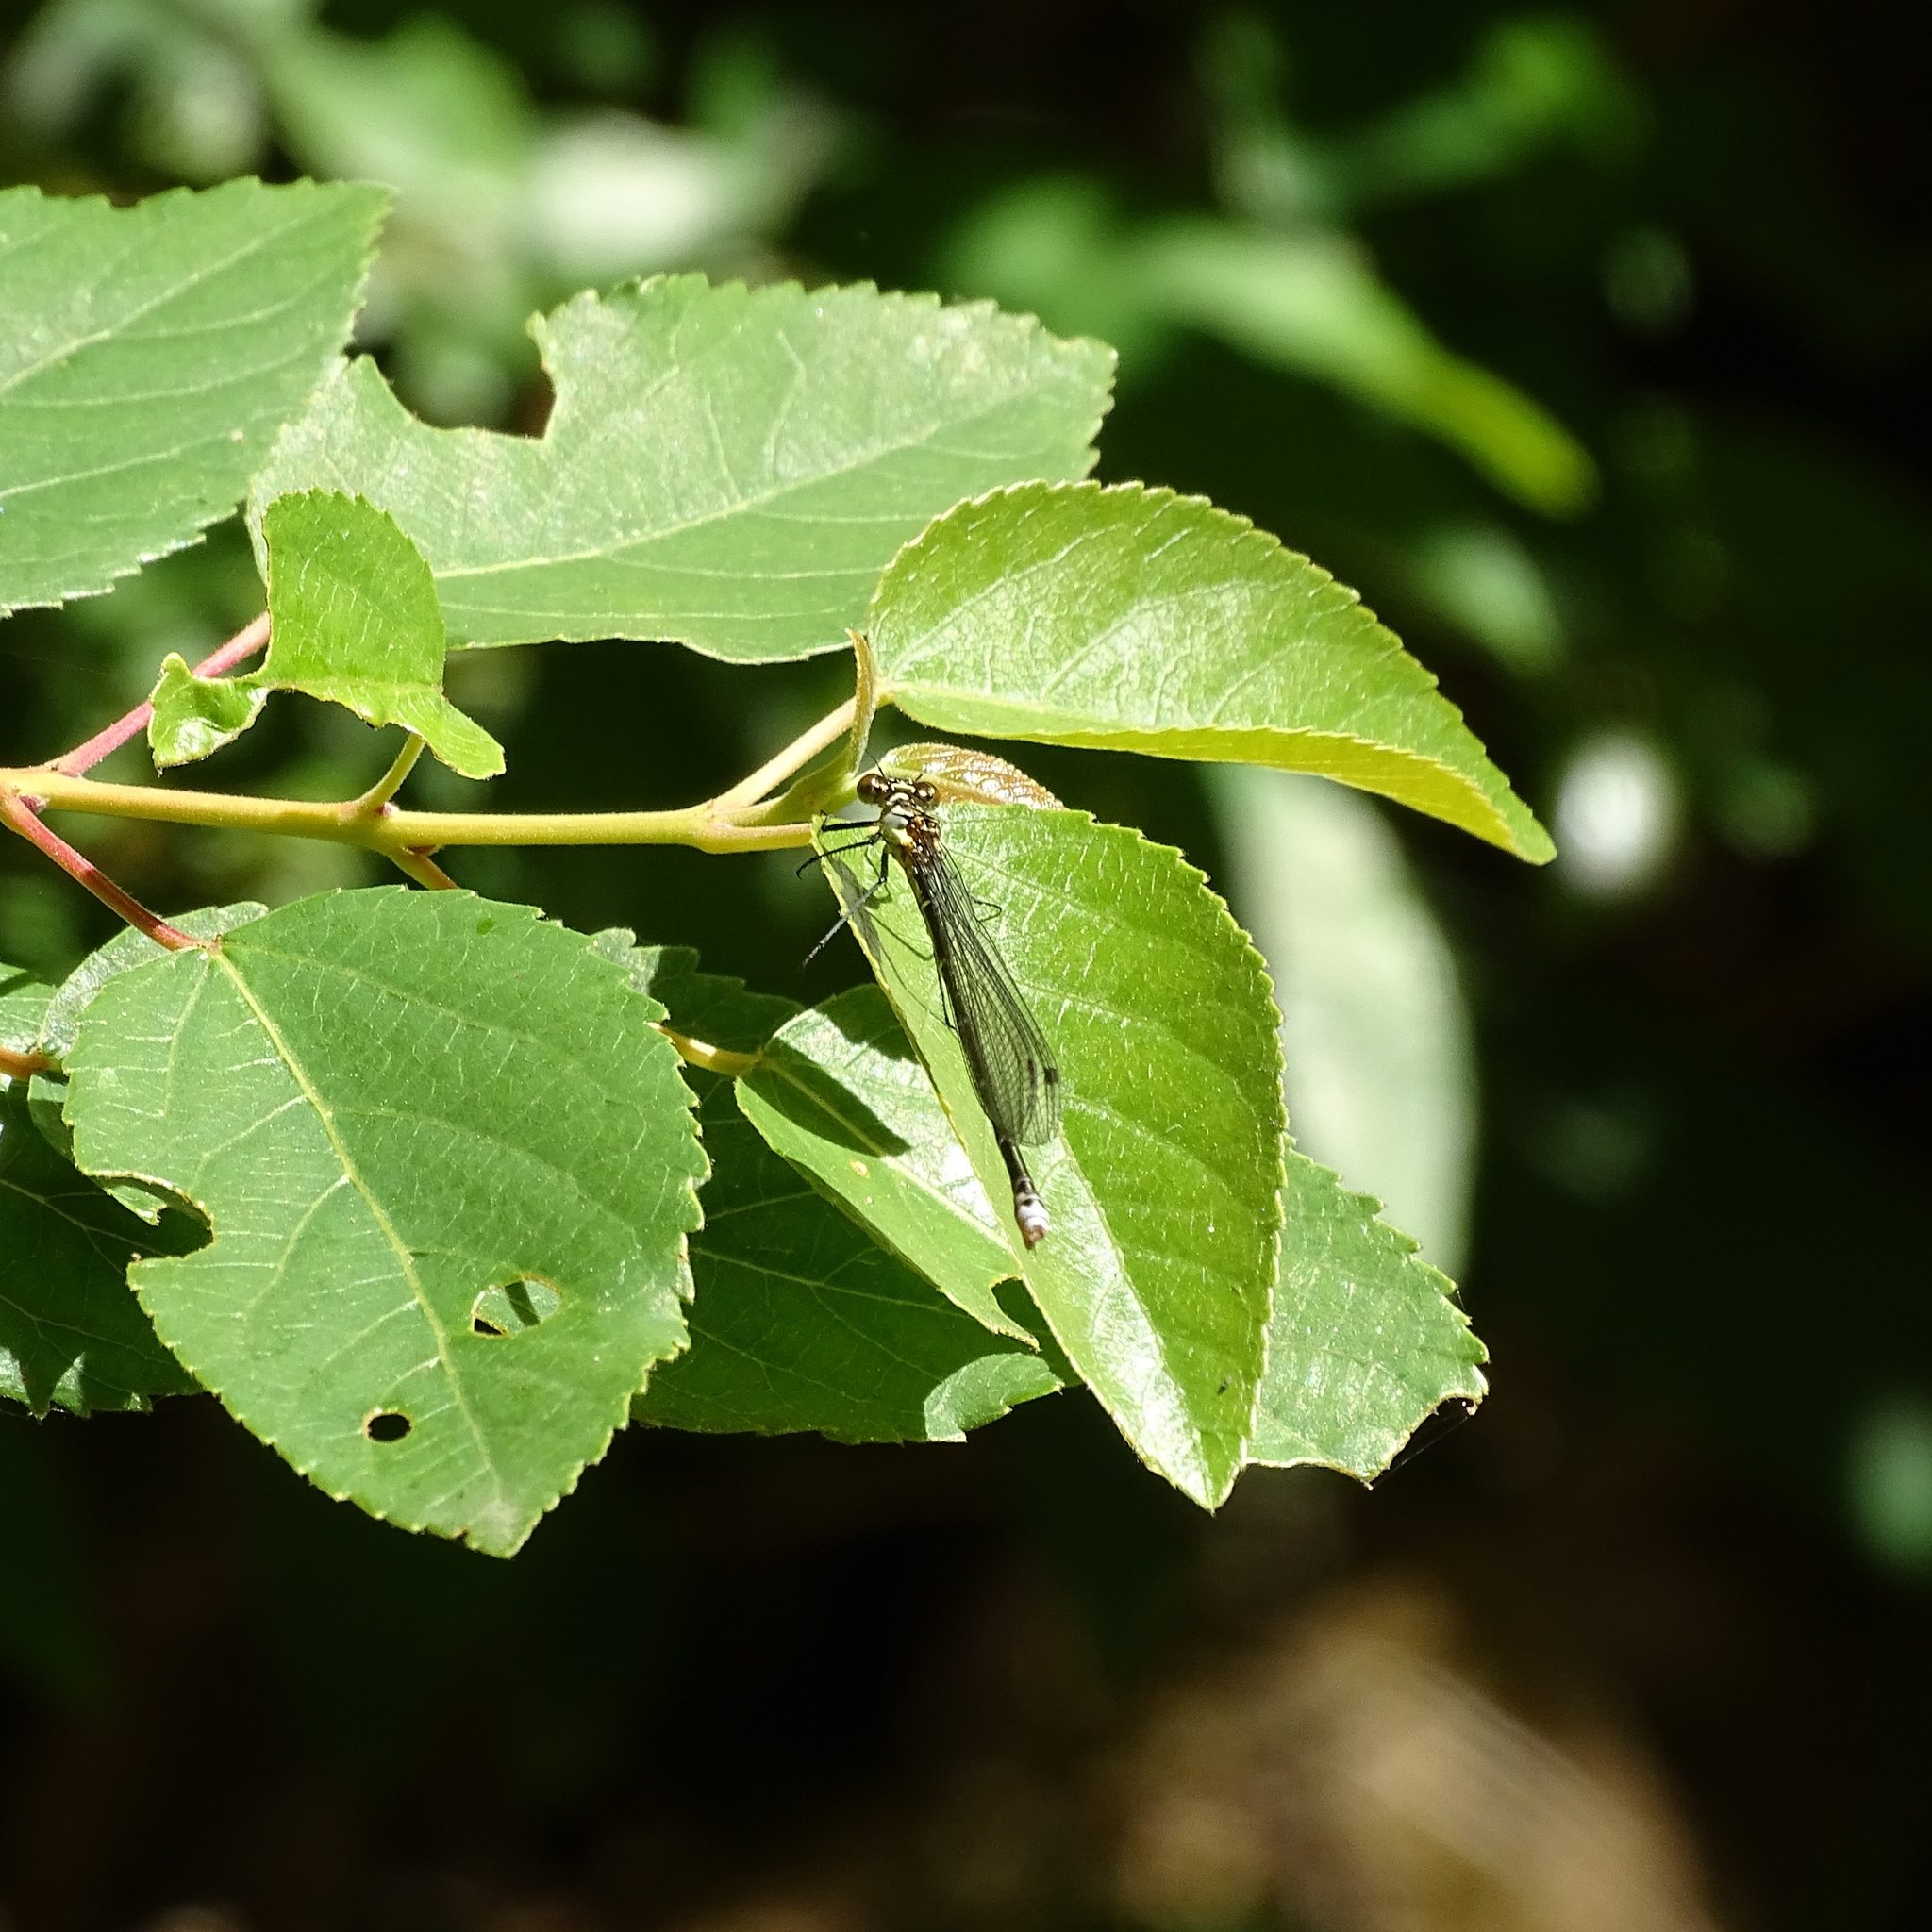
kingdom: Animalia
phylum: Arthropoda
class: Insecta
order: Odonata
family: Coenagrionidae
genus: Antiagrion
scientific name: Antiagrion gayi
